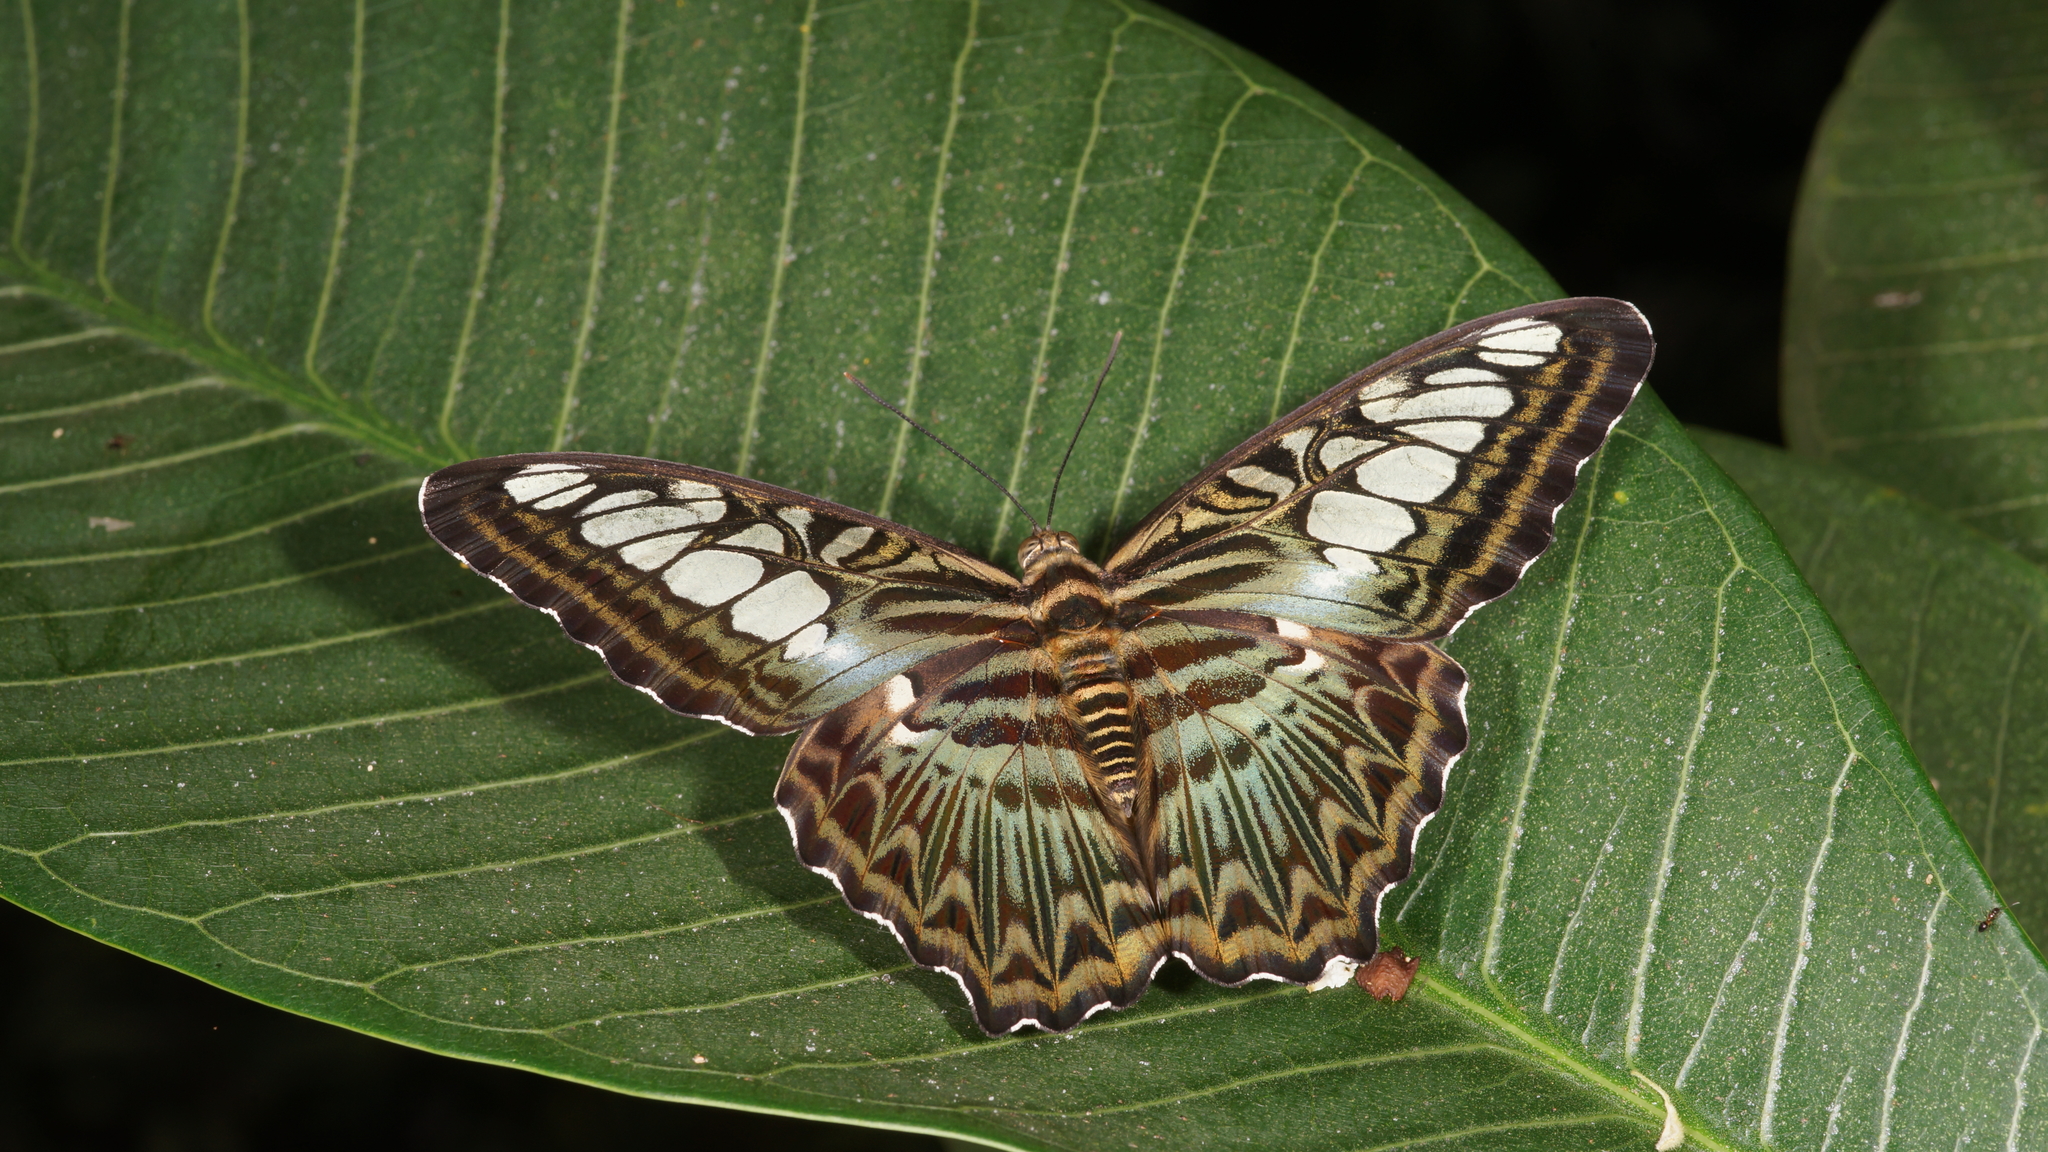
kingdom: Animalia
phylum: Arthropoda
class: Insecta
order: Lepidoptera
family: Nymphalidae
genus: Kallima
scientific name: Kallima sylvia
